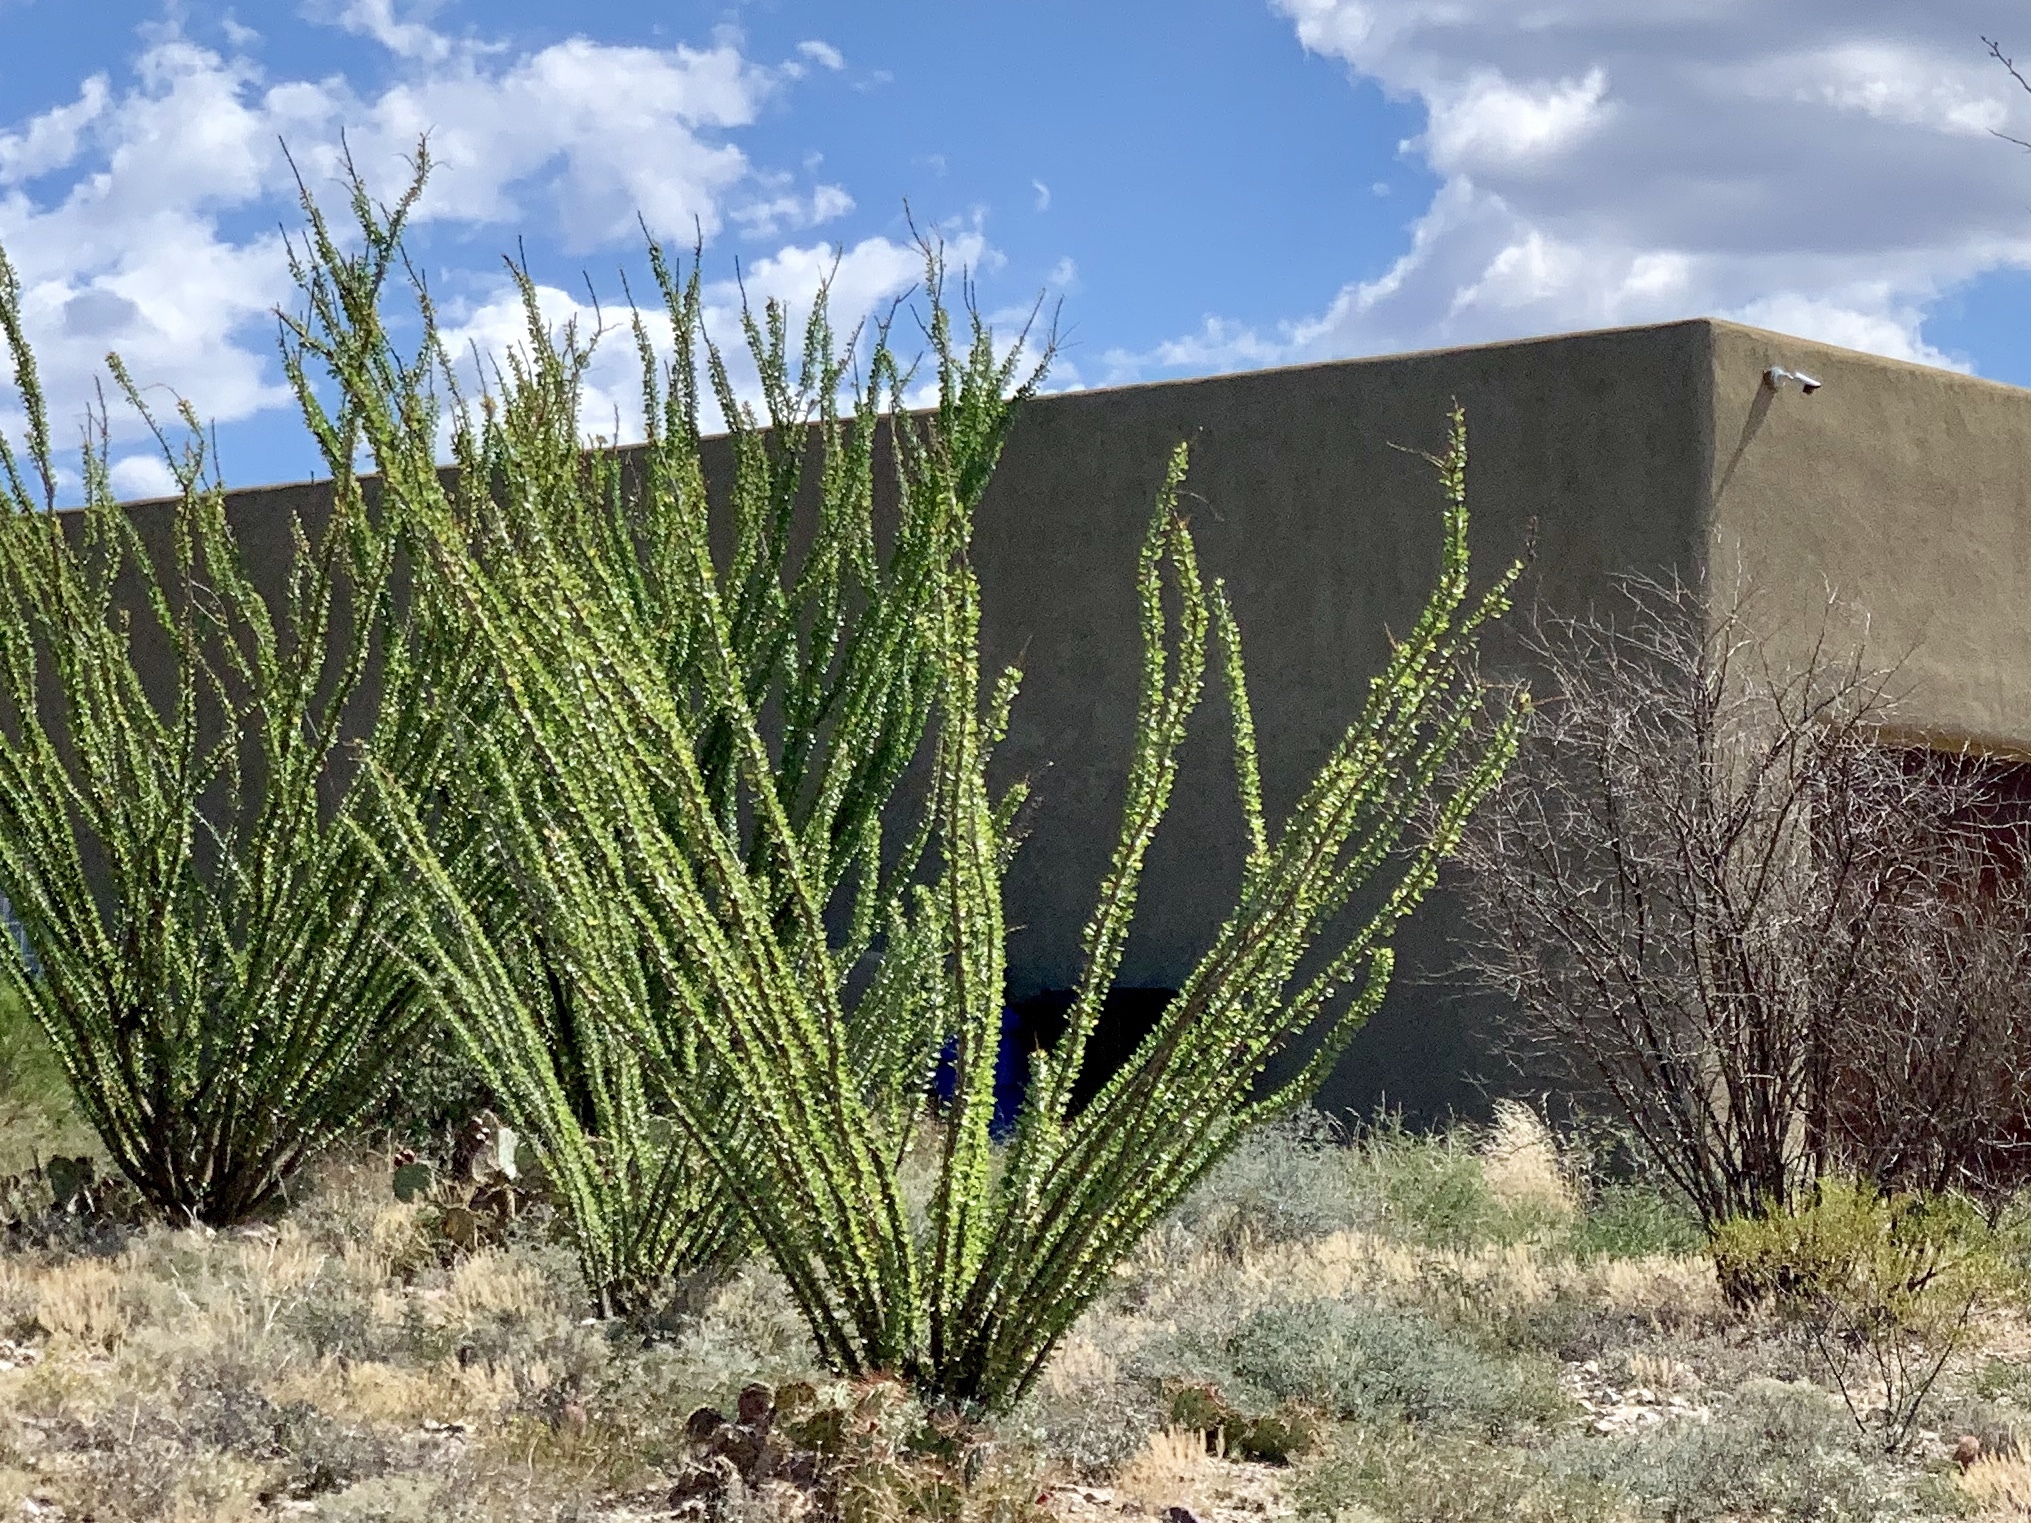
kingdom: Plantae
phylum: Tracheophyta
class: Magnoliopsida
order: Ericales
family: Fouquieriaceae
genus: Fouquieria
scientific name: Fouquieria splendens
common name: Vine-cactus
